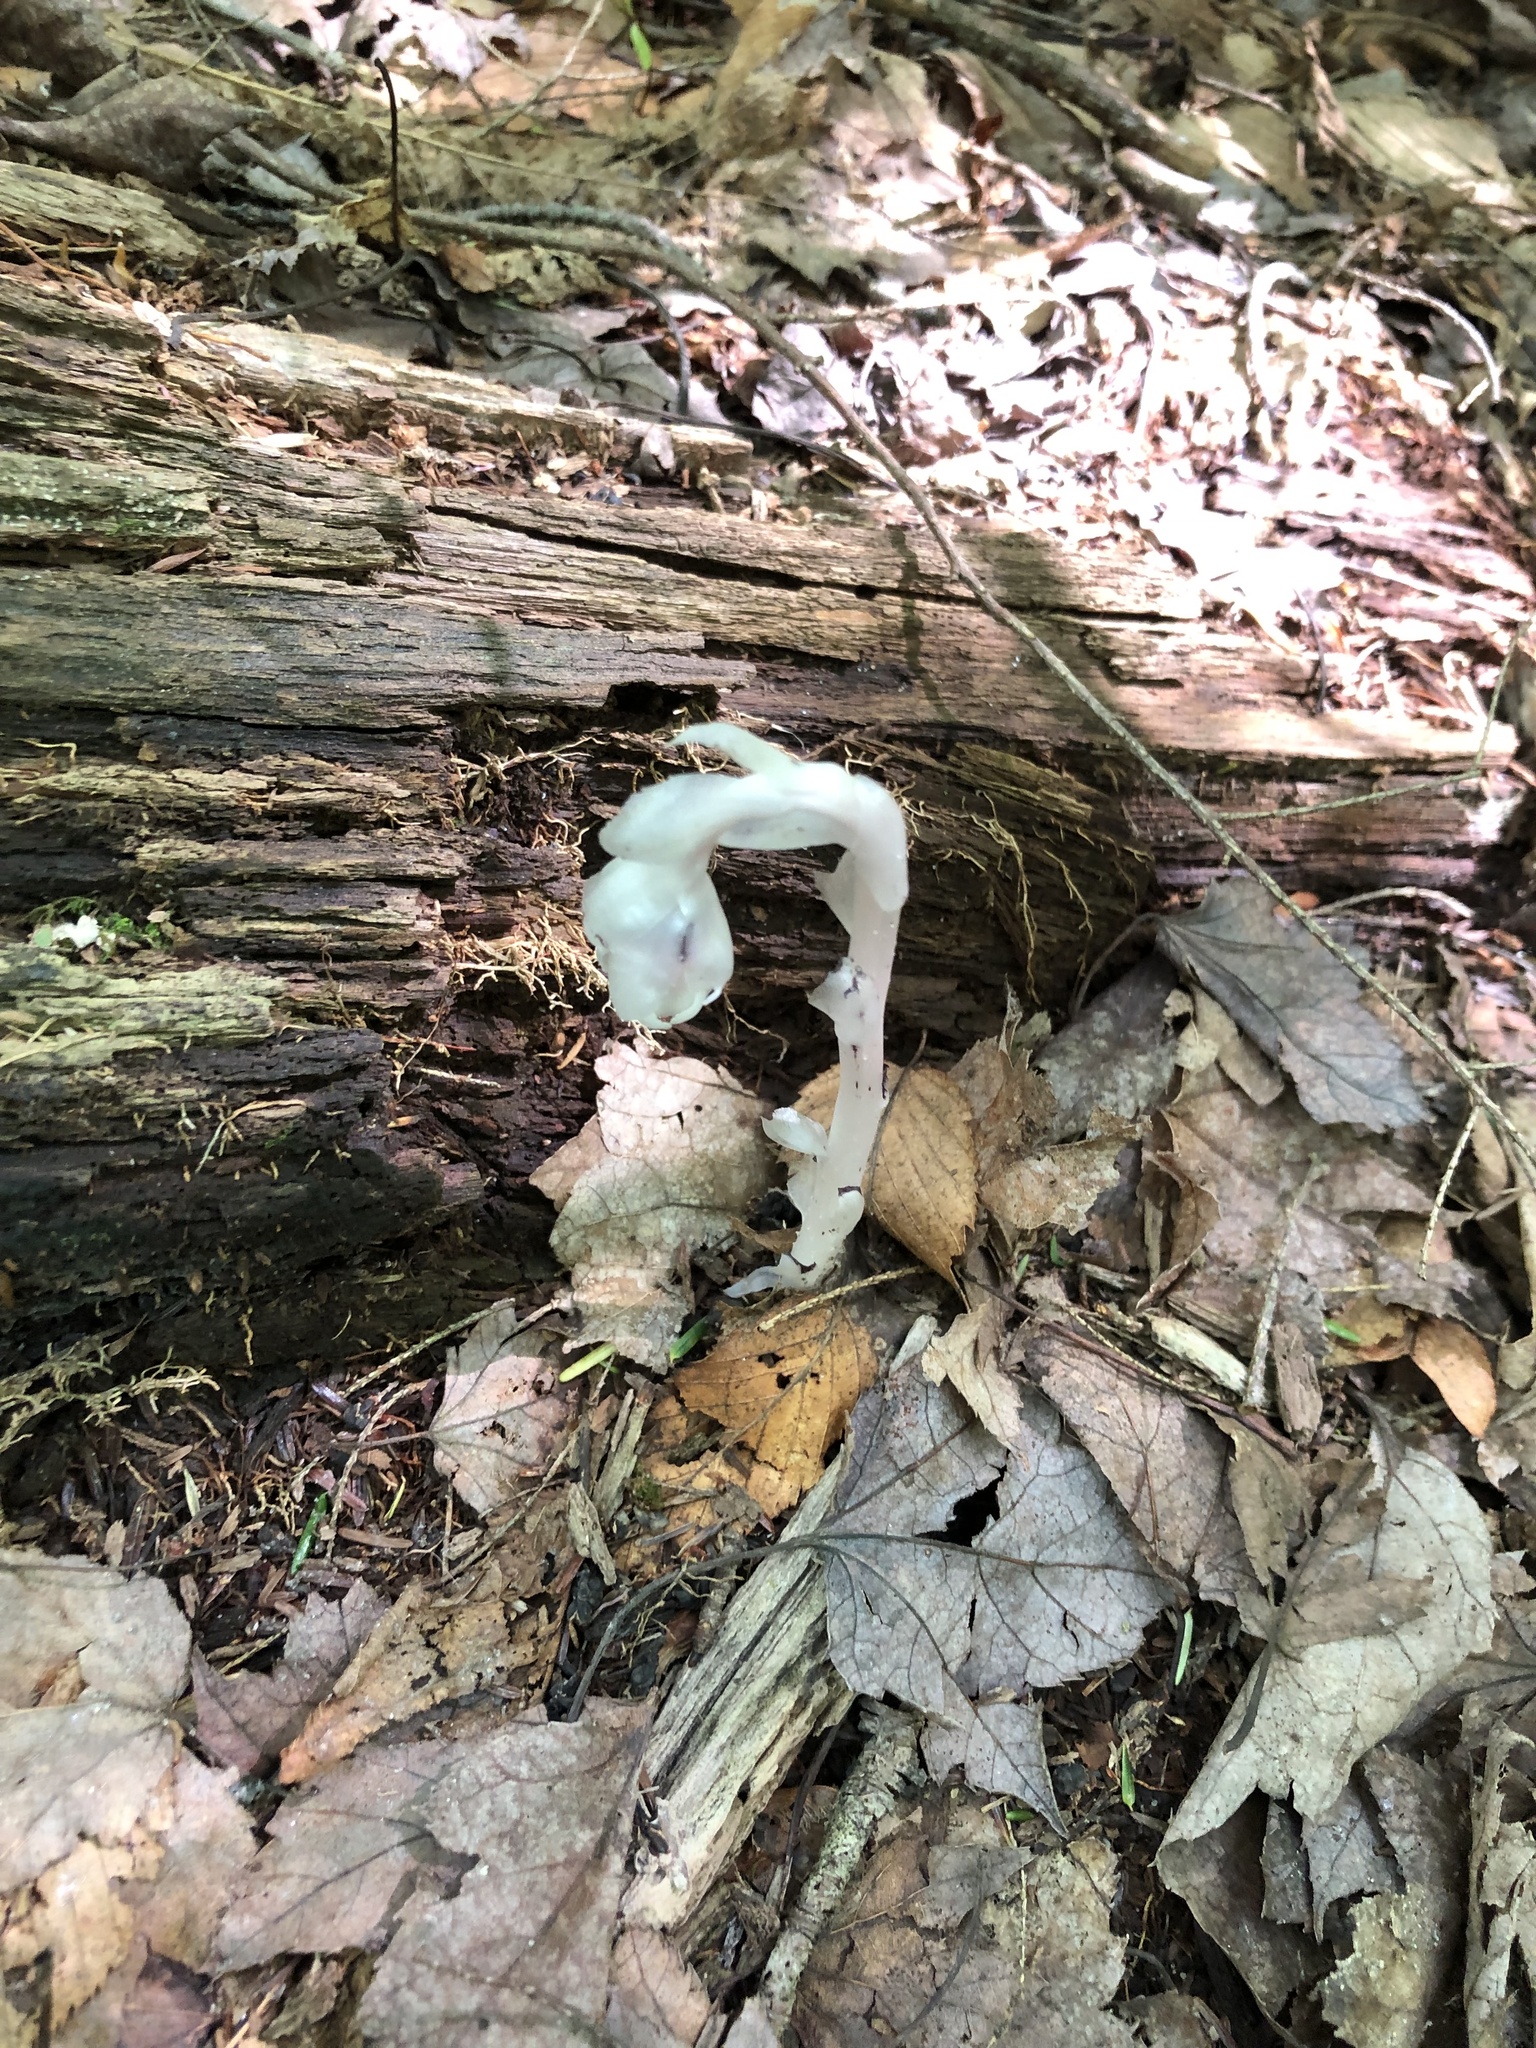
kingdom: Plantae
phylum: Tracheophyta
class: Magnoliopsida
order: Ericales
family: Ericaceae
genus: Monotropa
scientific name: Monotropa uniflora
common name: Convulsion root
